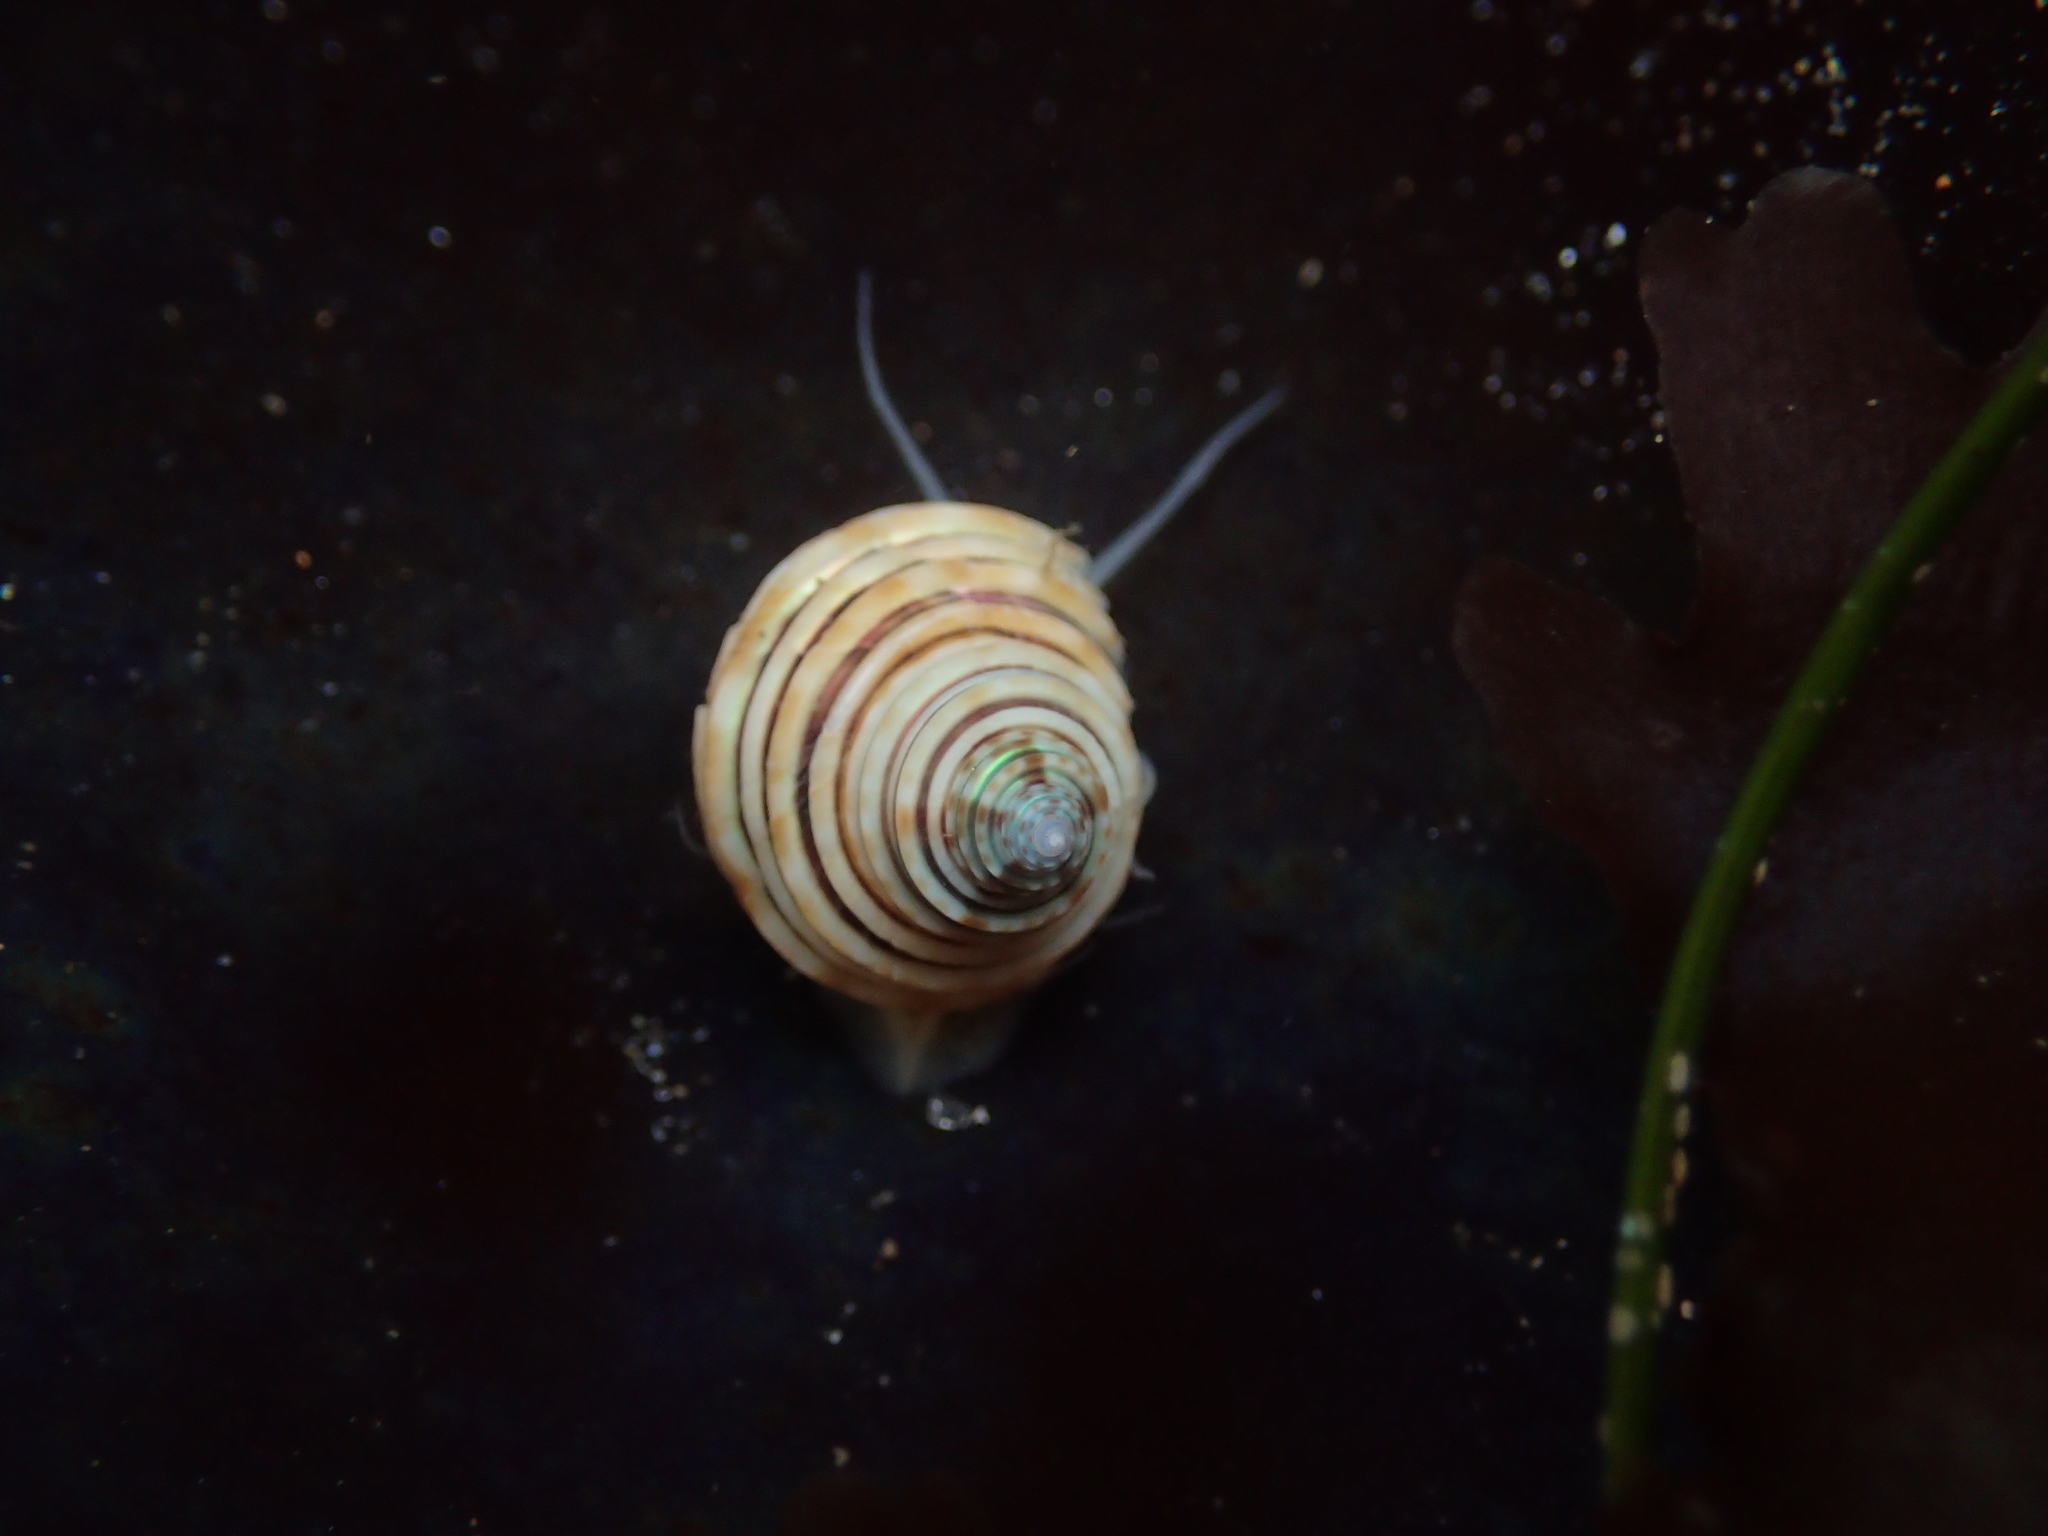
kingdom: Animalia
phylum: Mollusca
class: Gastropoda
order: Trochida
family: Calliostomatidae
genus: Calliostoma
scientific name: Calliostoma canaliculatum
